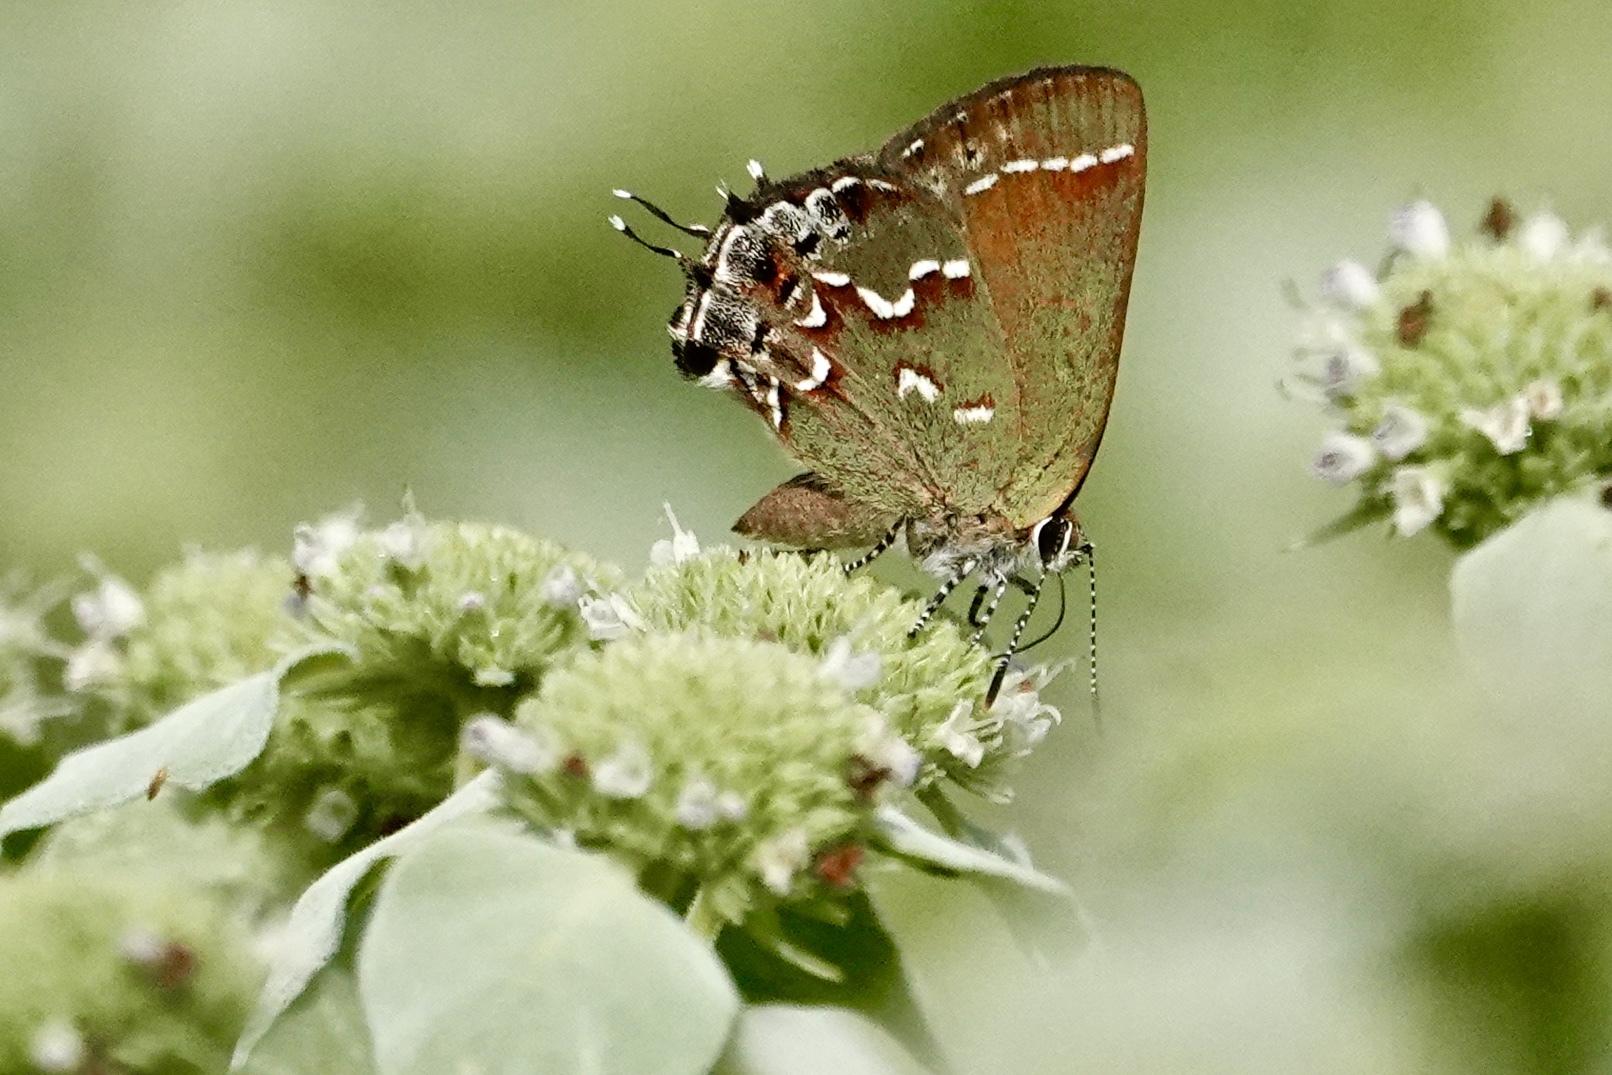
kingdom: Animalia
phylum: Arthropoda
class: Insecta
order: Lepidoptera
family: Lycaenidae
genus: Mitoura
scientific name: Mitoura gryneus
